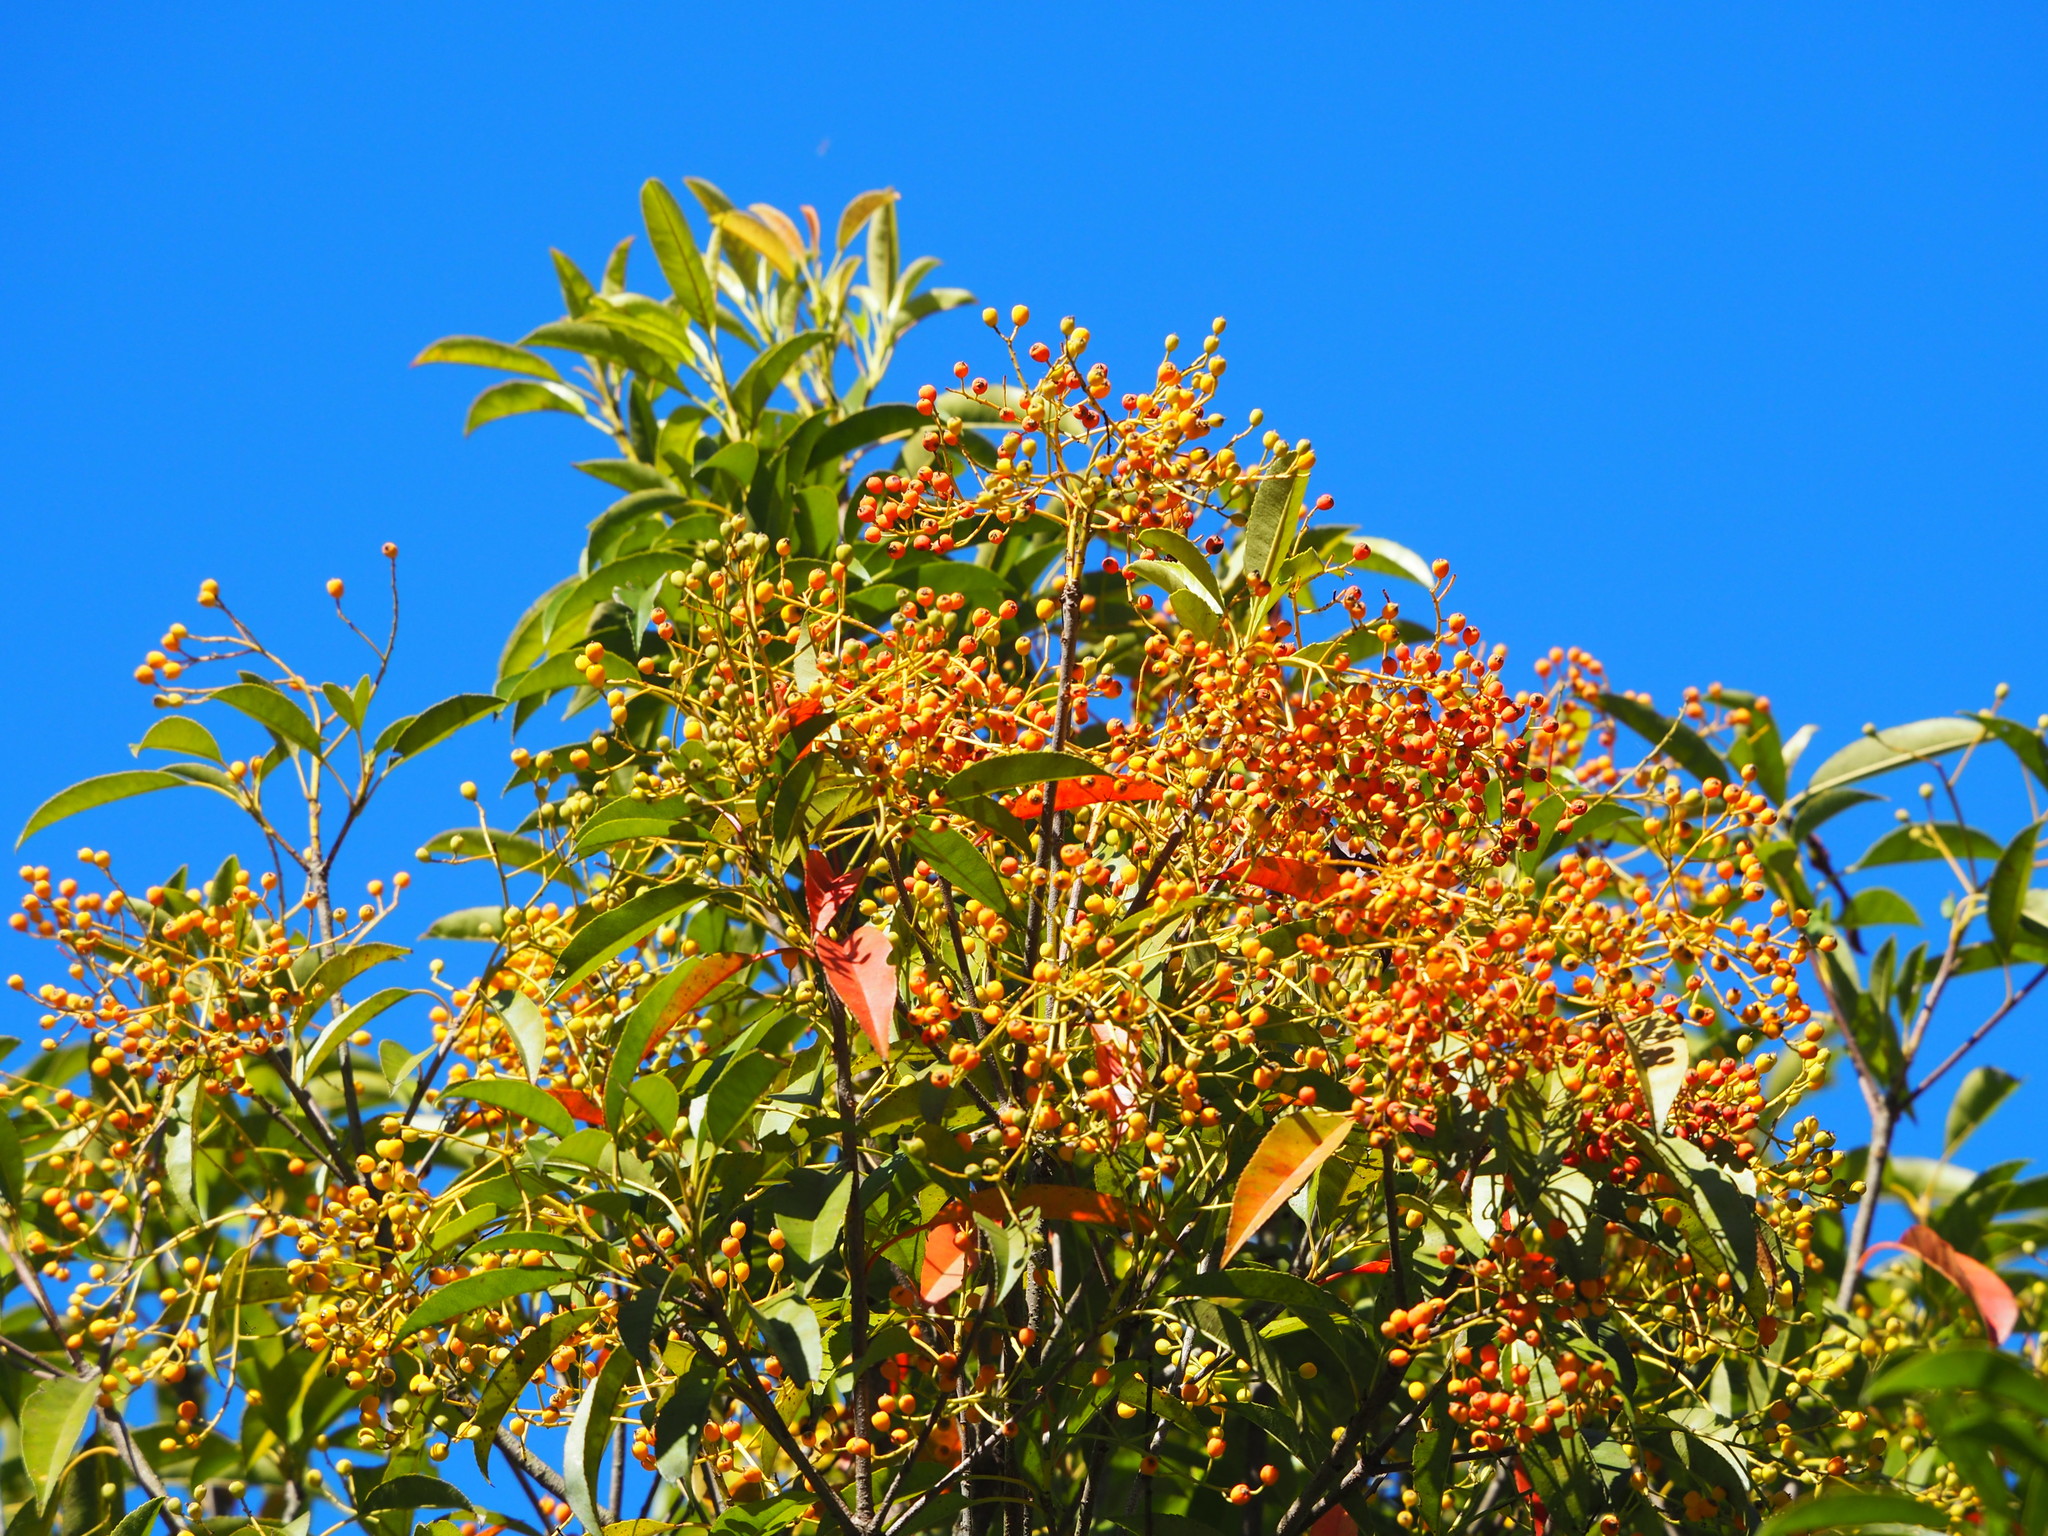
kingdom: Plantae
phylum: Tracheophyta
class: Magnoliopsida
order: Rosales
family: Rosaceae
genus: Photinia
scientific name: Photinia serratifolia
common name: Taiwanese photinia
